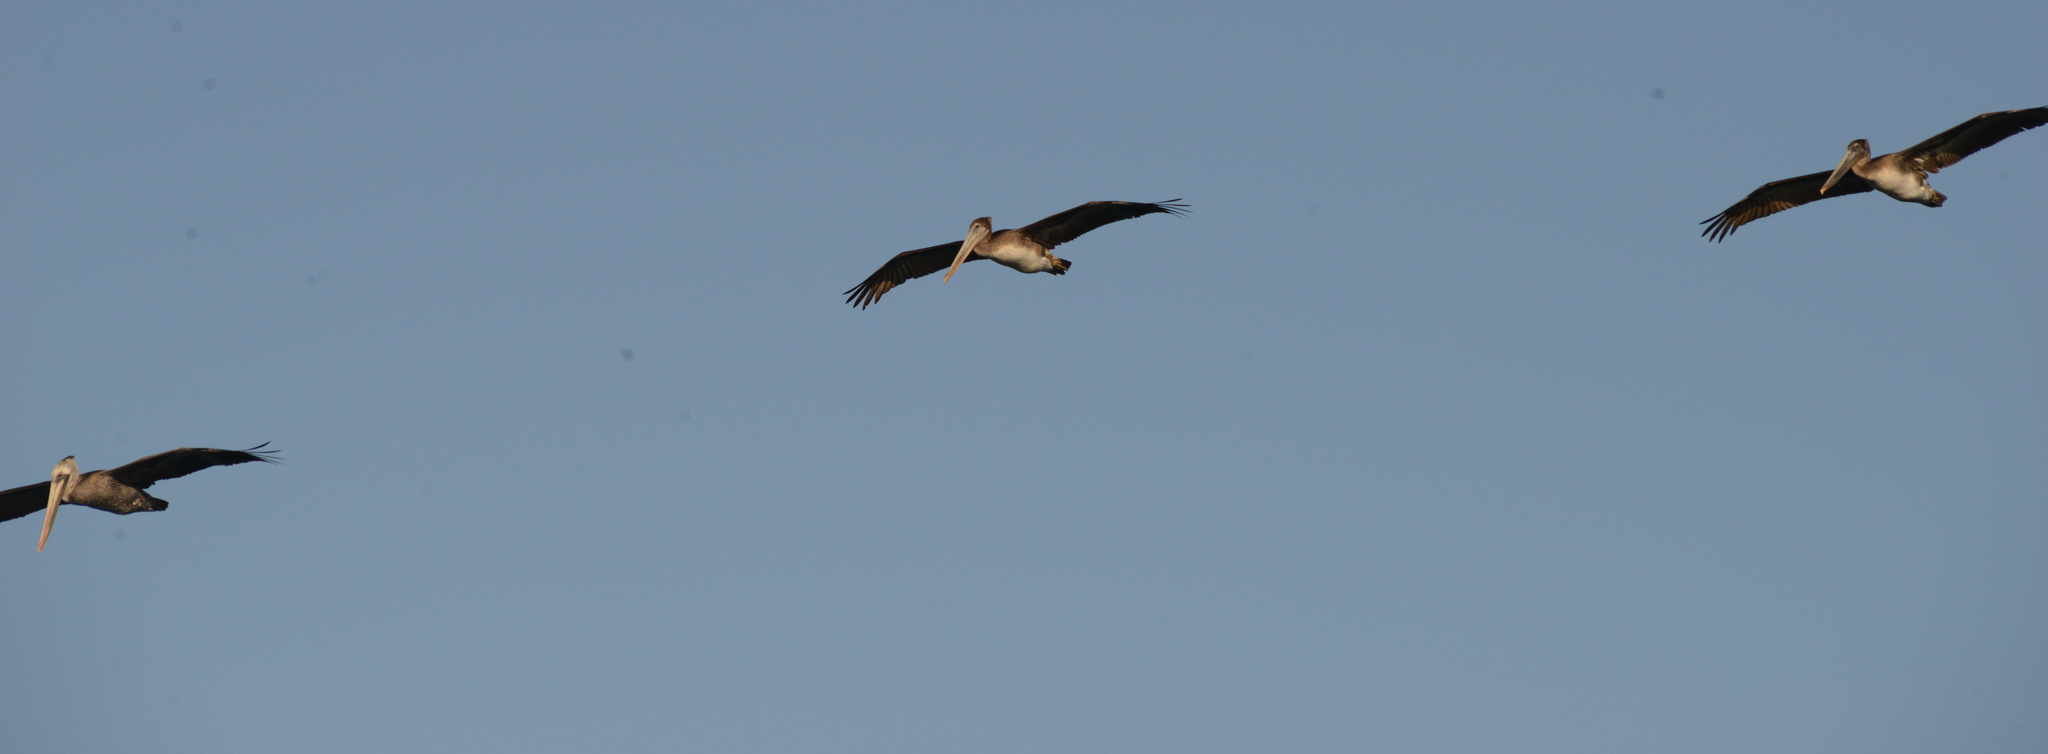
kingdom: Animalia
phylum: Chordata
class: Aves
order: Pelecaniformes
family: Pelecanidae
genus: Pelecanus
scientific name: Pelecanus occidentalis
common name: Brown pelican
